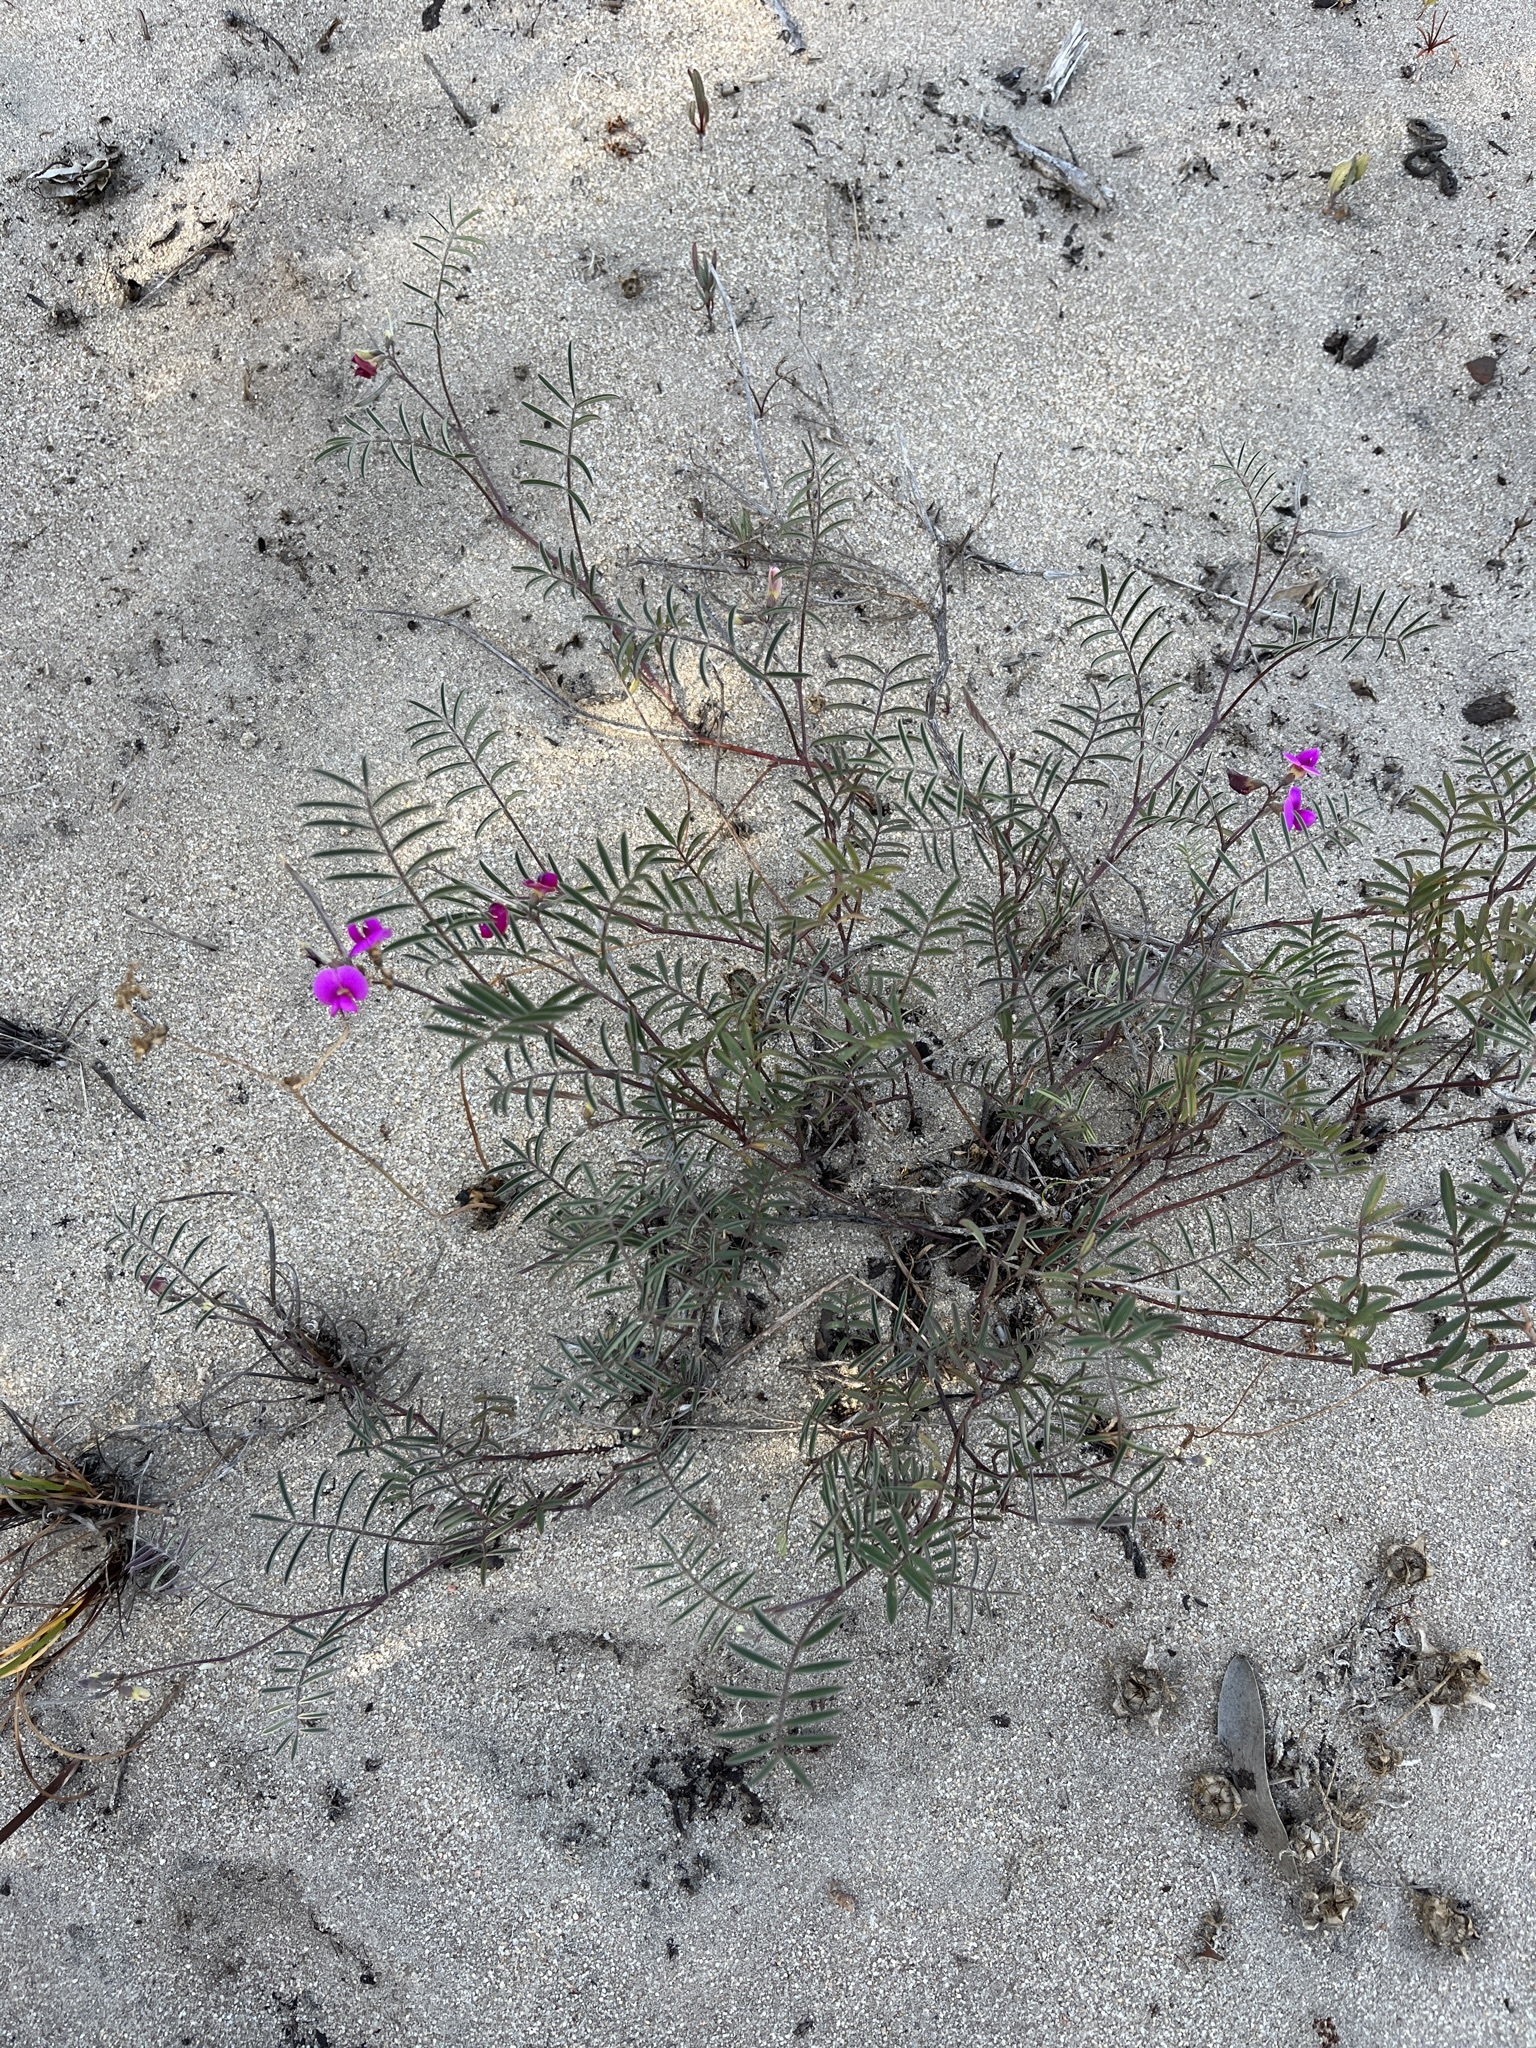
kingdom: Plantae
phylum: Tracheophyta
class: Magnoliopsida
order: Fabales
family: Fabaceae
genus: Tephrosia
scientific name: Tephrosia capensis
